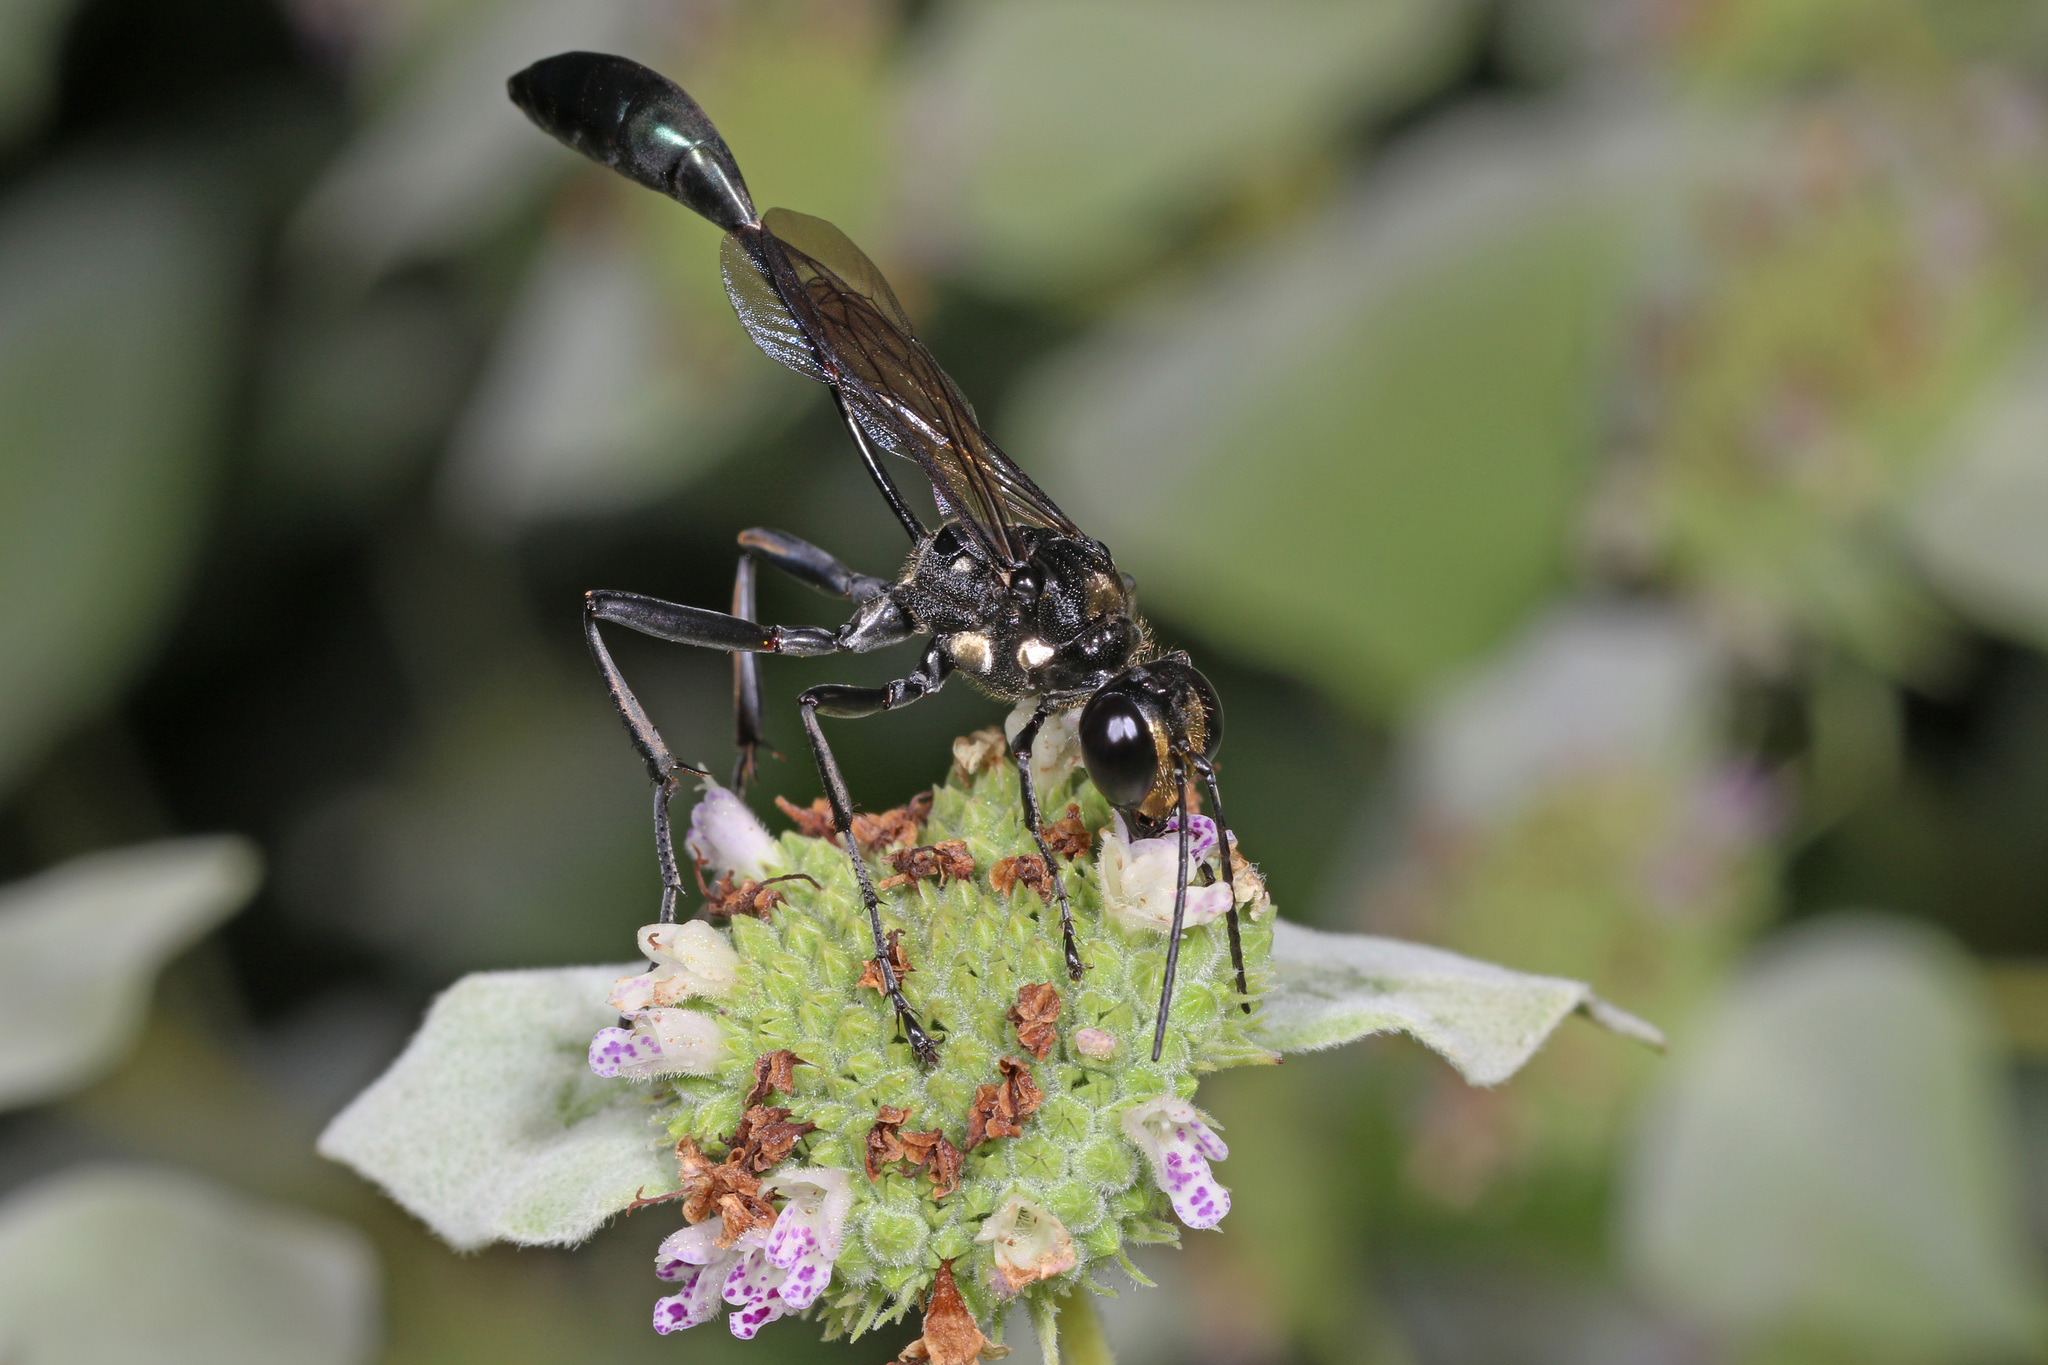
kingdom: Animalia
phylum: Arthropoda
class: Insecta
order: Hymenoptera
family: Sphecidae
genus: Eremnophila
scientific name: Eremnophila aureonotata
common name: Gold-marked thread-waisted wasp
